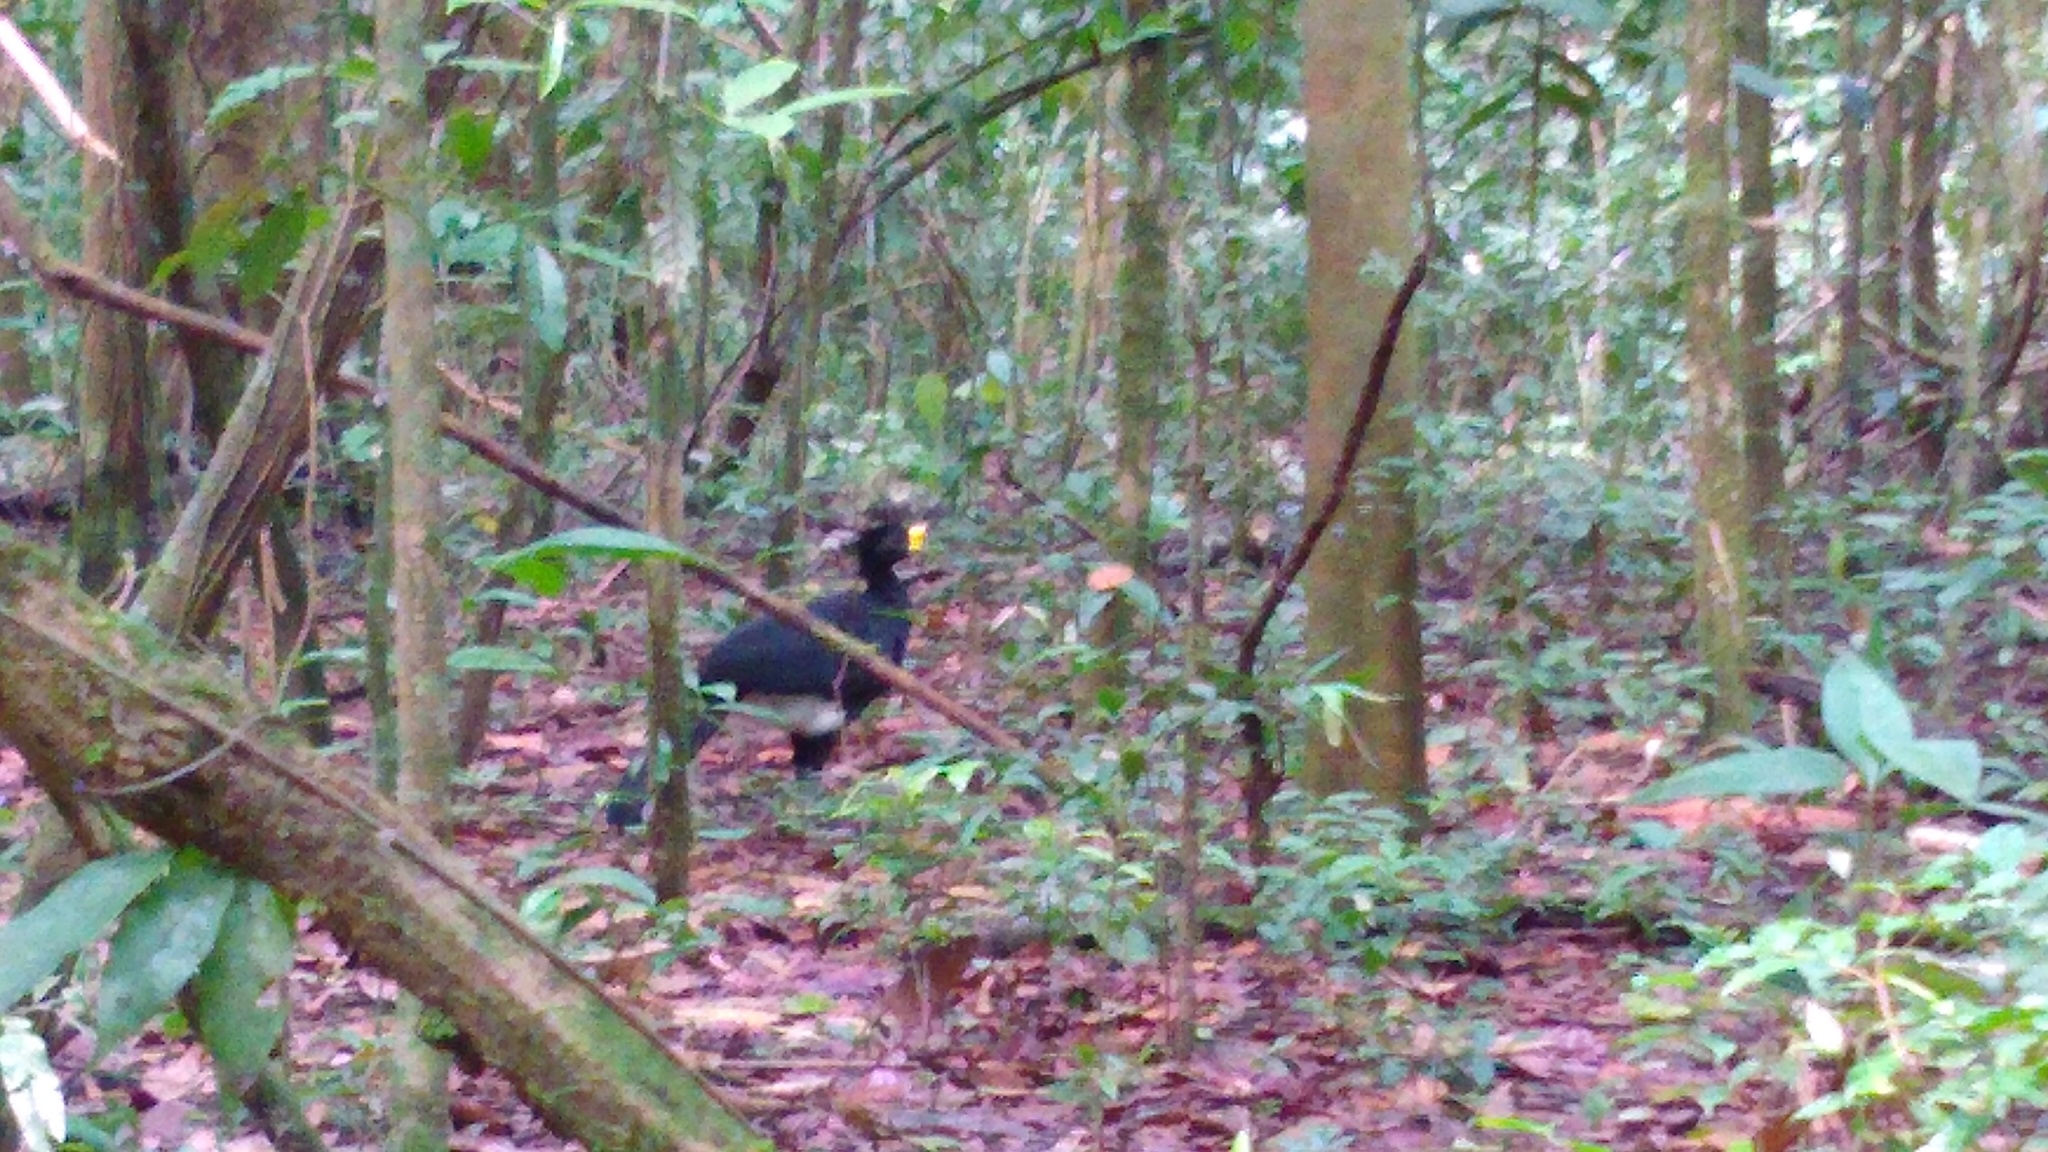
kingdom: Animalia
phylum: Chordata
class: Aves
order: Galliformes
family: Cracidae
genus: Crax
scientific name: Crax rubra
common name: Great curassow
